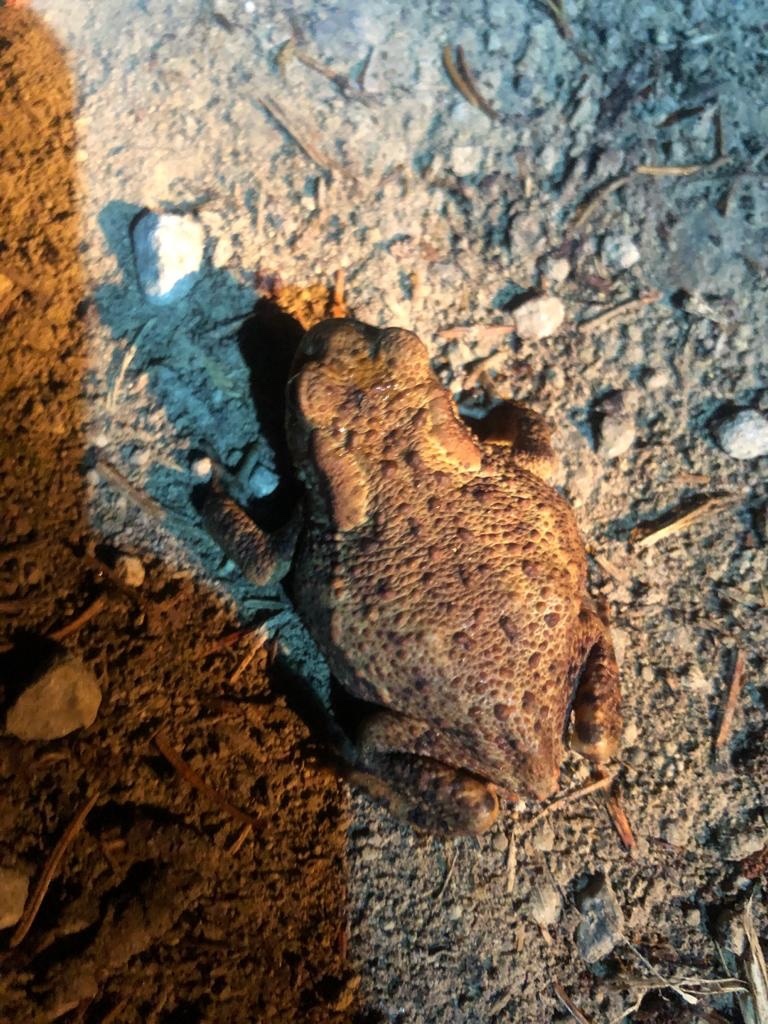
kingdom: Animalia
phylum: Chordata
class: Amphibia
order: Anura
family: Bufonidae
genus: Bufo
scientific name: Bufo bufo
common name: Common toad
